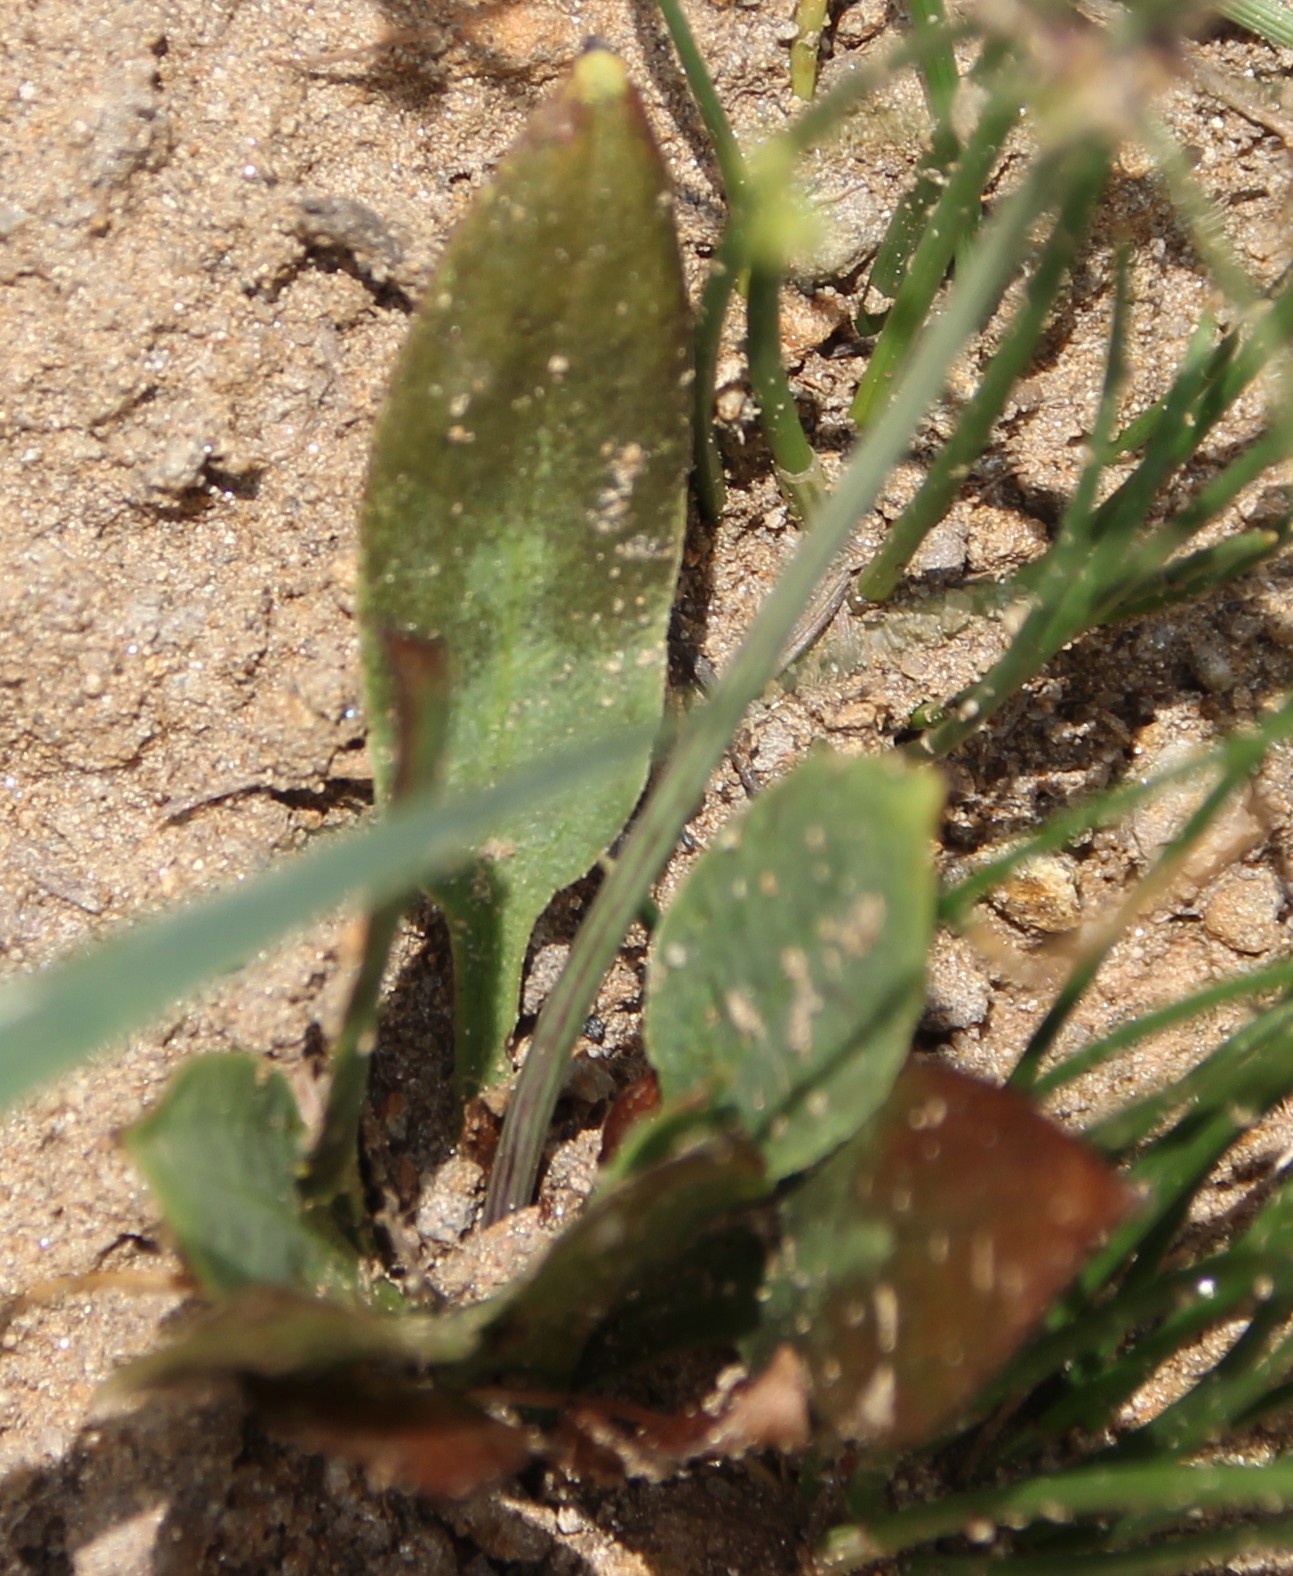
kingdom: Plantae
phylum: Tracheophyta
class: Liliopsida
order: Alismatales
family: Alismataceae
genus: Alisma
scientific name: Alisma triviale
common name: Northern water-plantain
